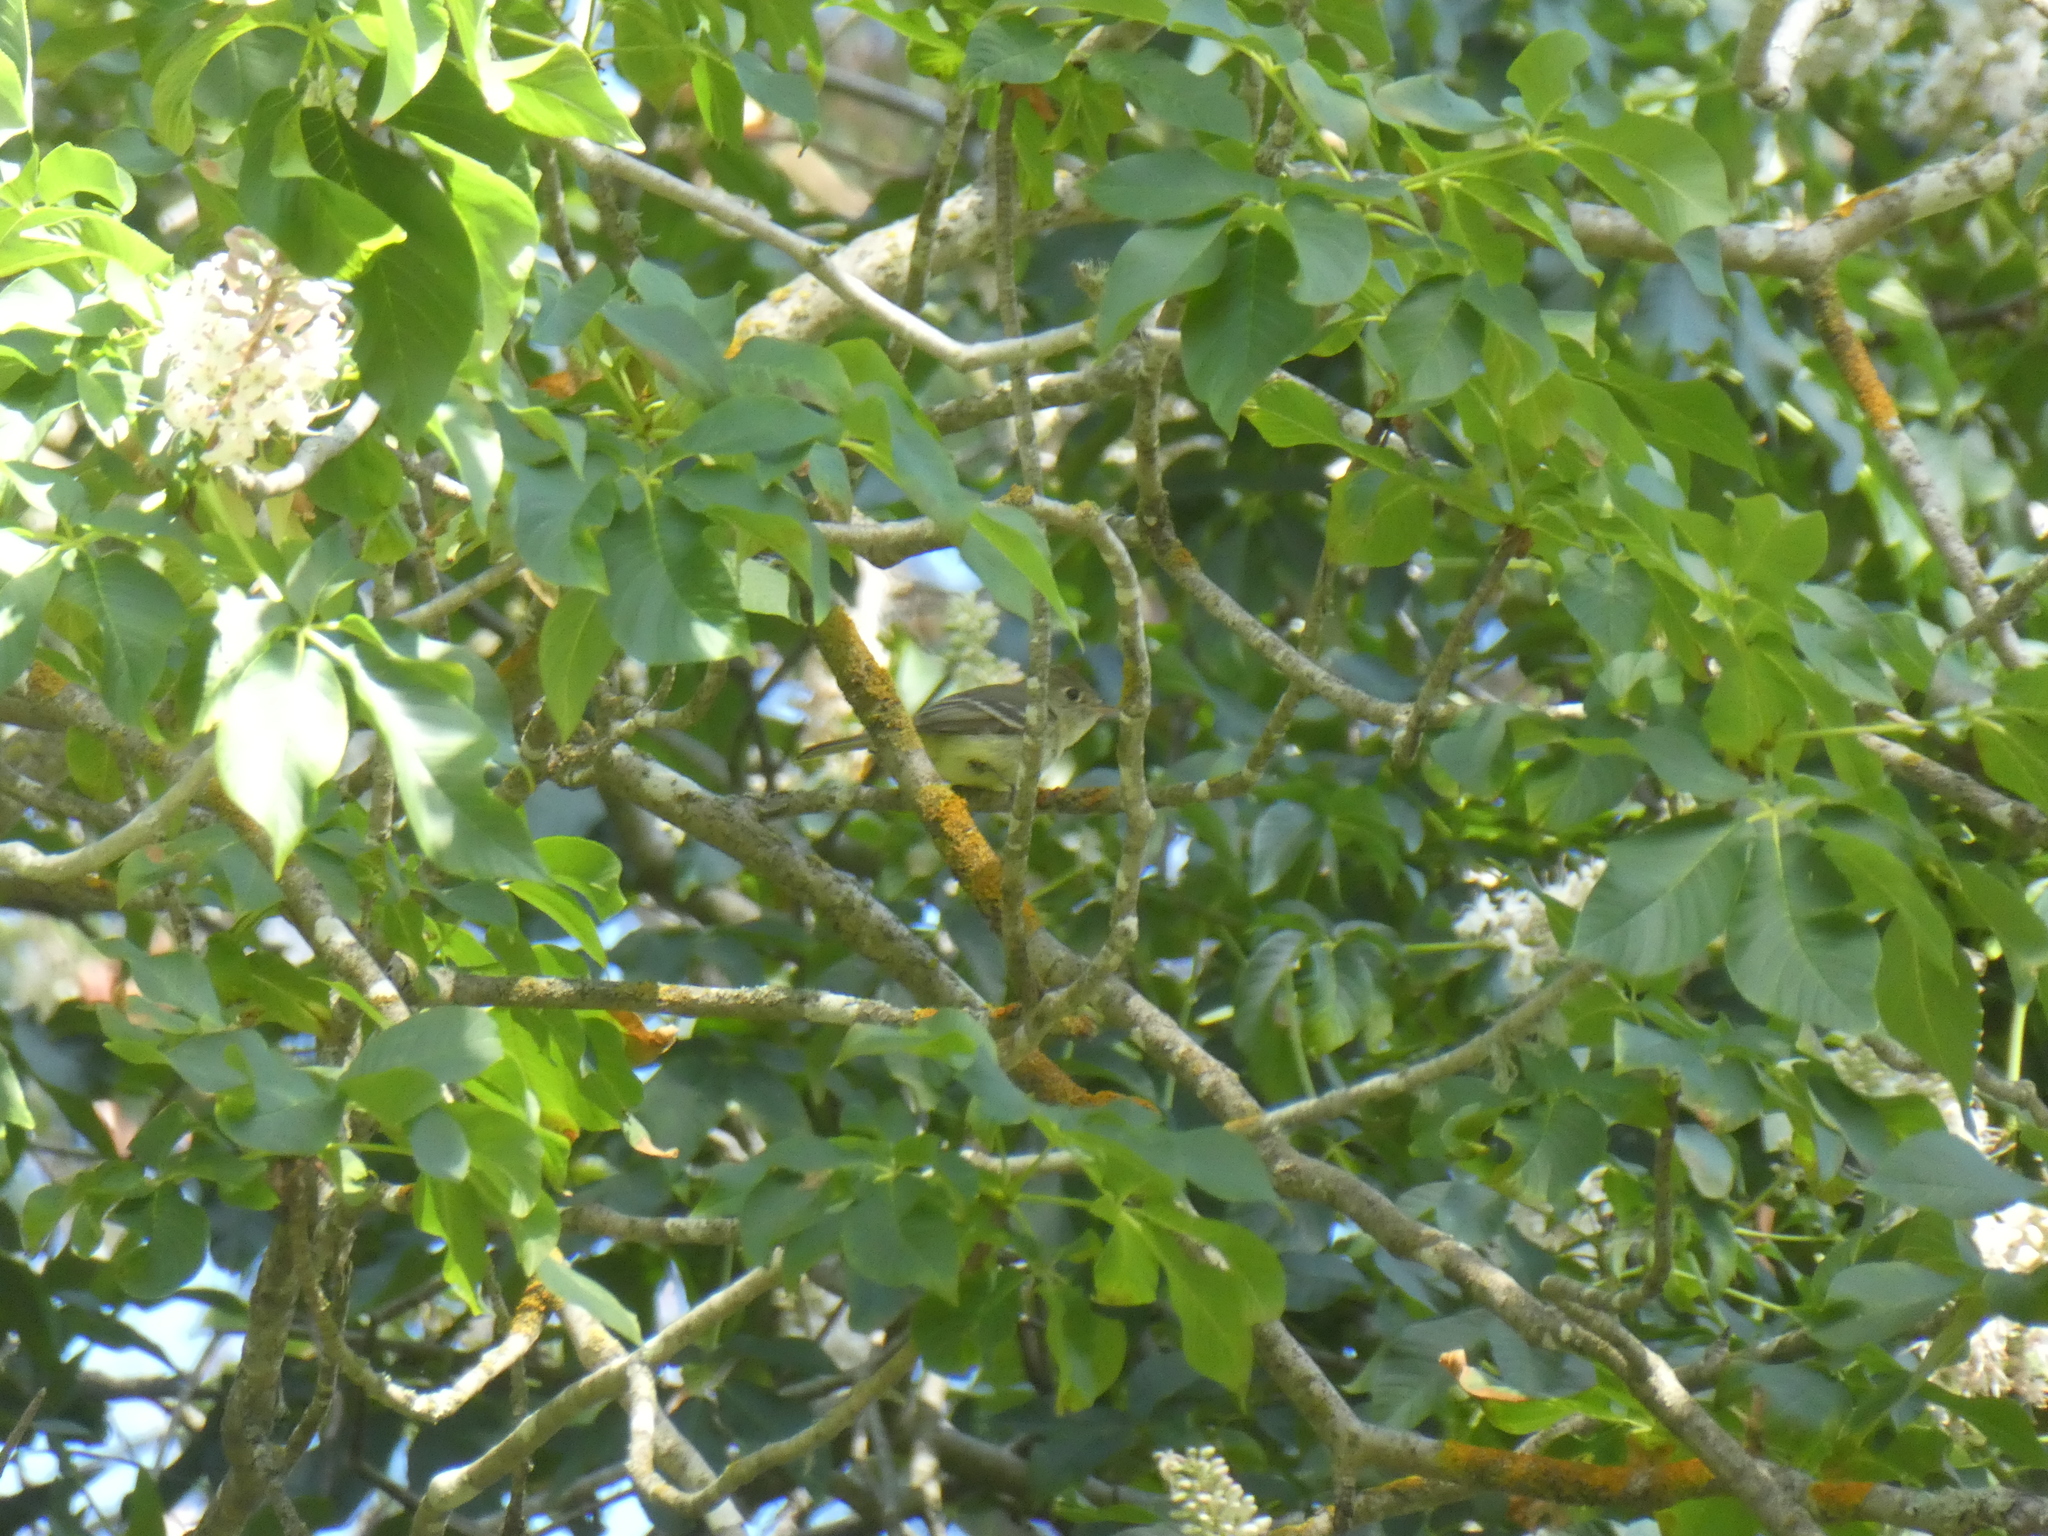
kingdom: Animalia
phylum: Chordata
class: Aves
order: Passeriformes
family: Tyrannidae
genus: Empidonax
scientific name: Empidonax difficilis
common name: Pacific-slope flycatcher
